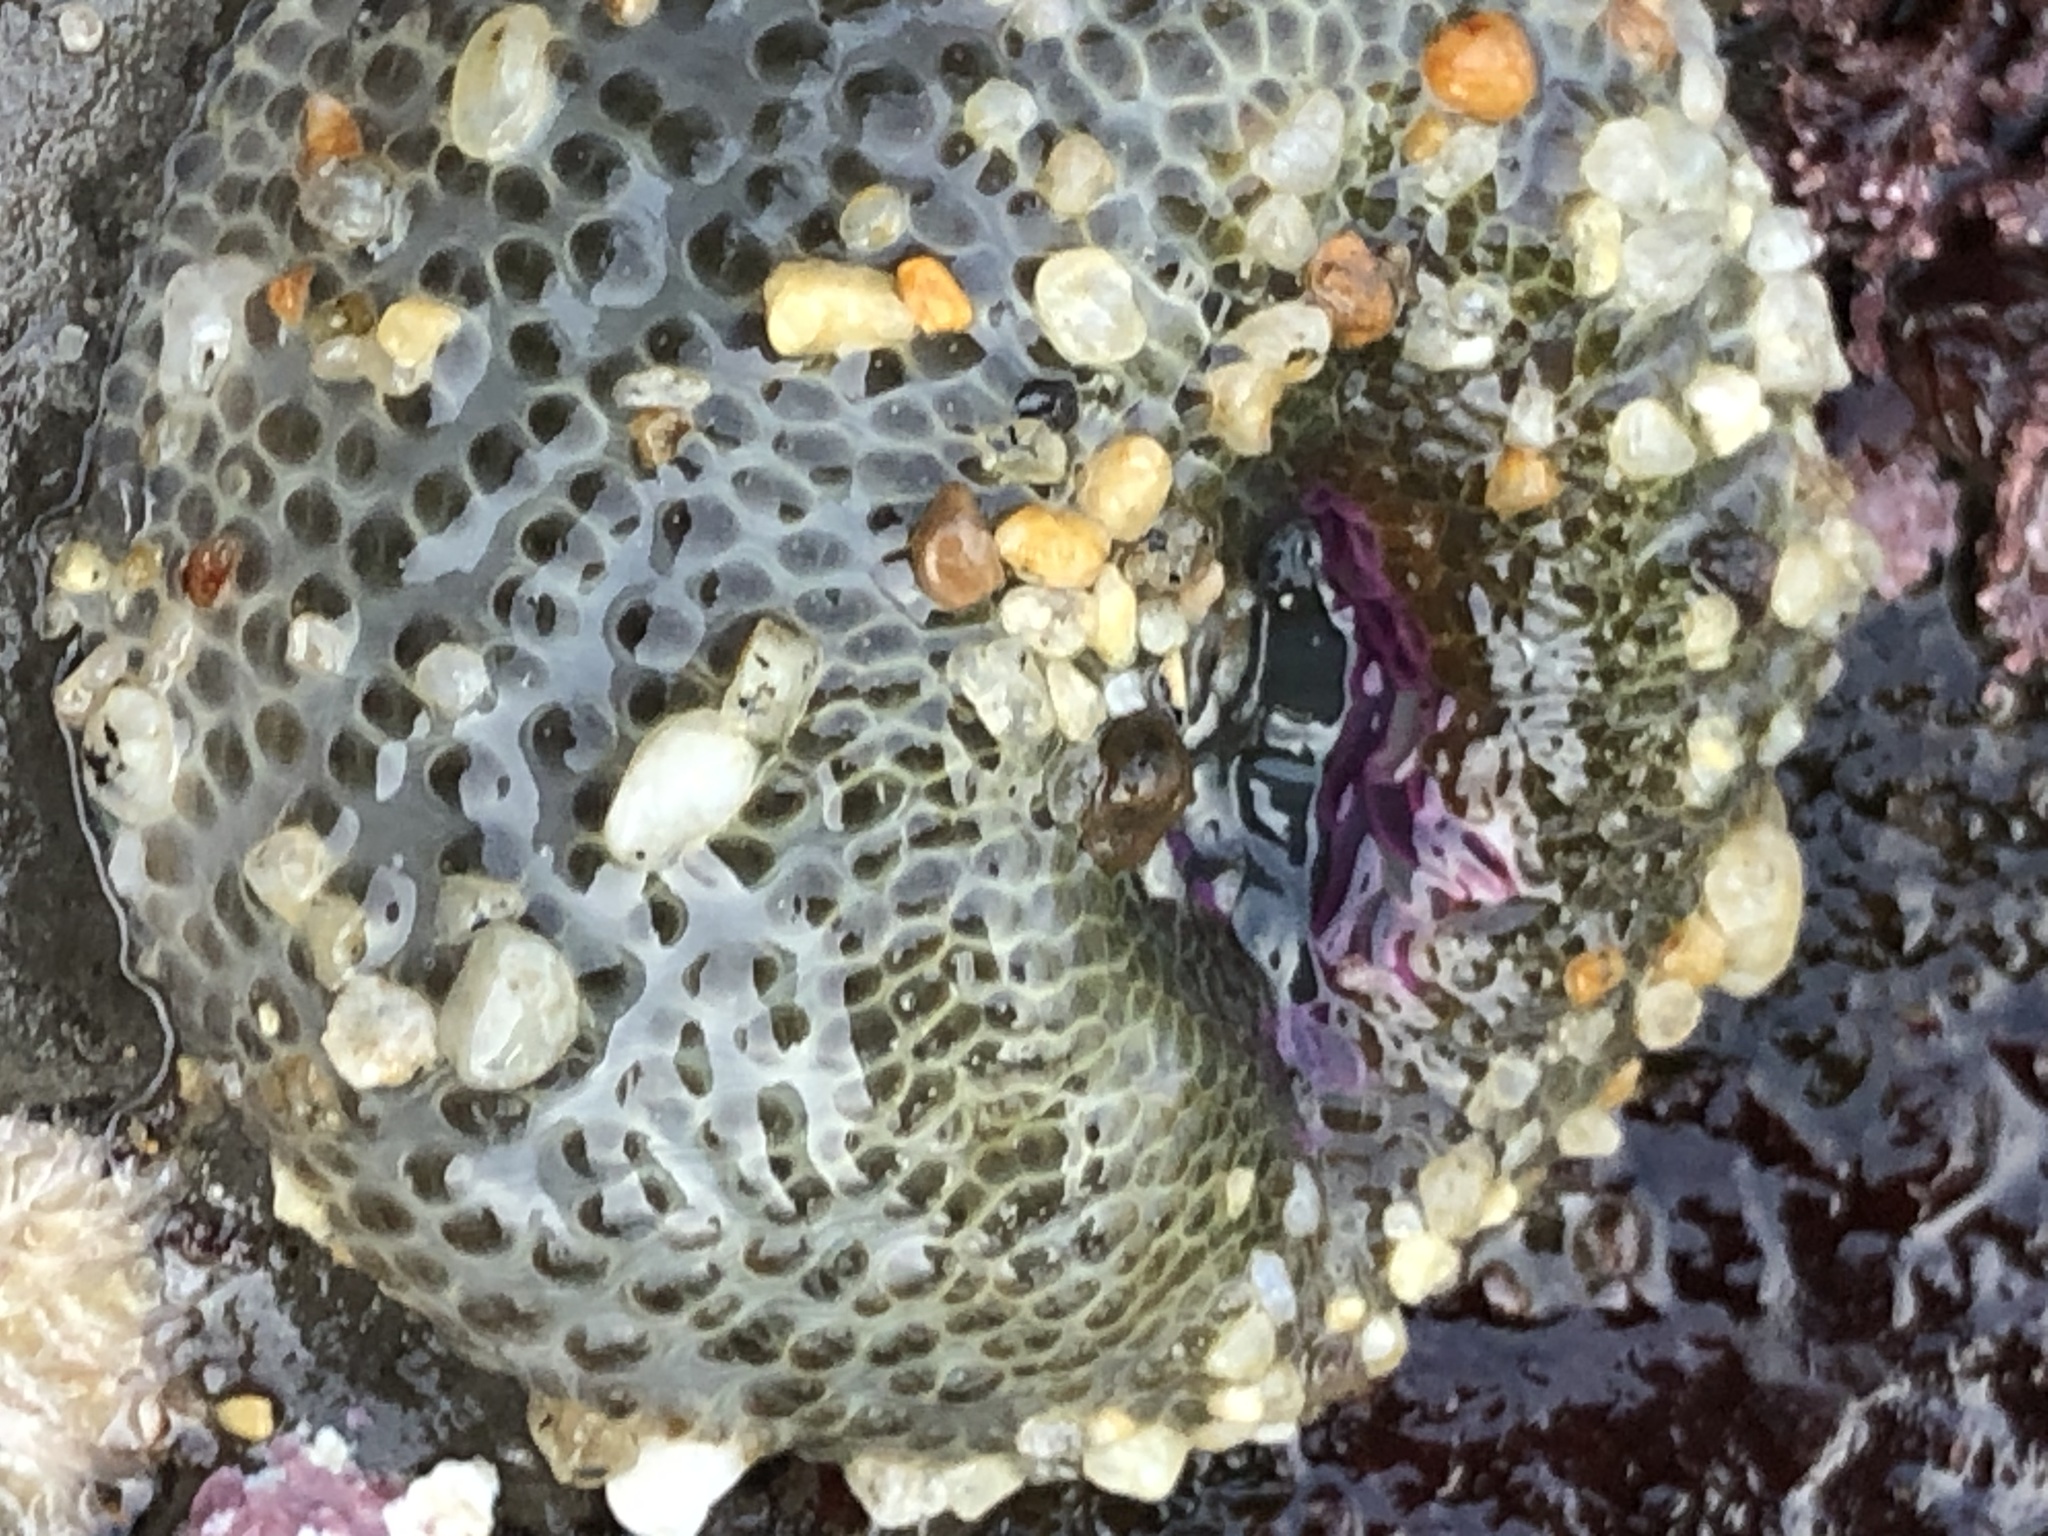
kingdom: Animalia
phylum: Cnidaria
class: Anthozoa
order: Actiniaria
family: Actiniidae
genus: Anthopleura
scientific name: Anthopleura elegantissima
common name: Clonal anemone
